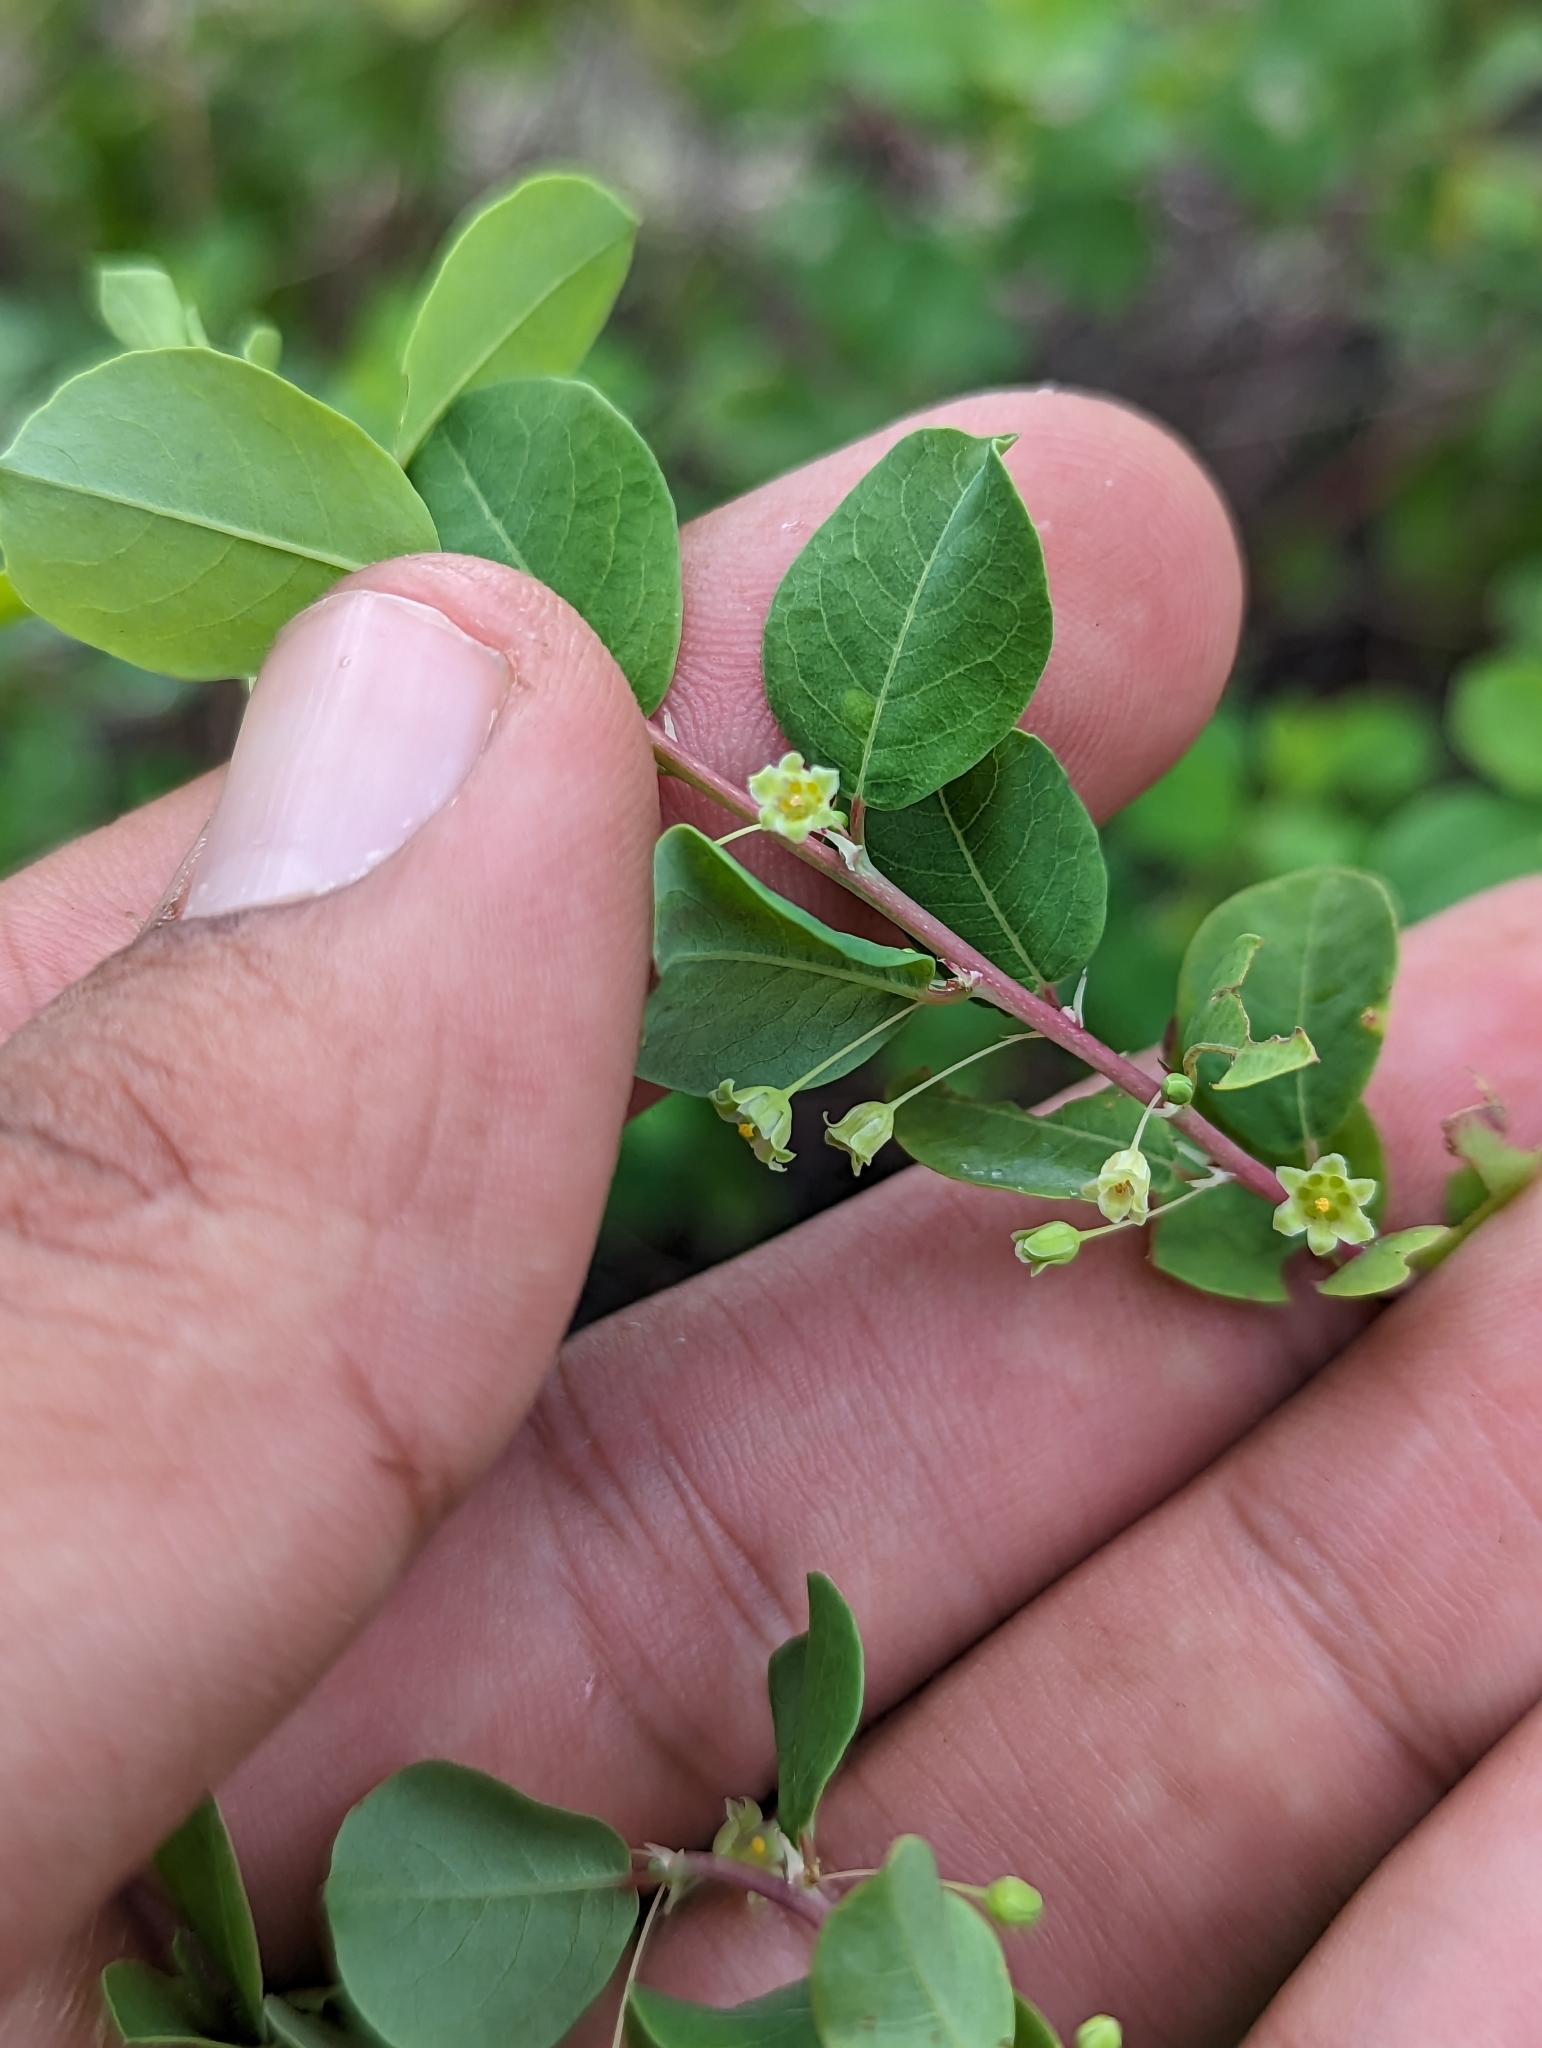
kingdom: Plantae
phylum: Tracheophyta
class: Magnoliopsida
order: Malpighiales
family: Phyllanthaceae
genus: Phyllanthus
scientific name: Phyllanthus gypsicola
